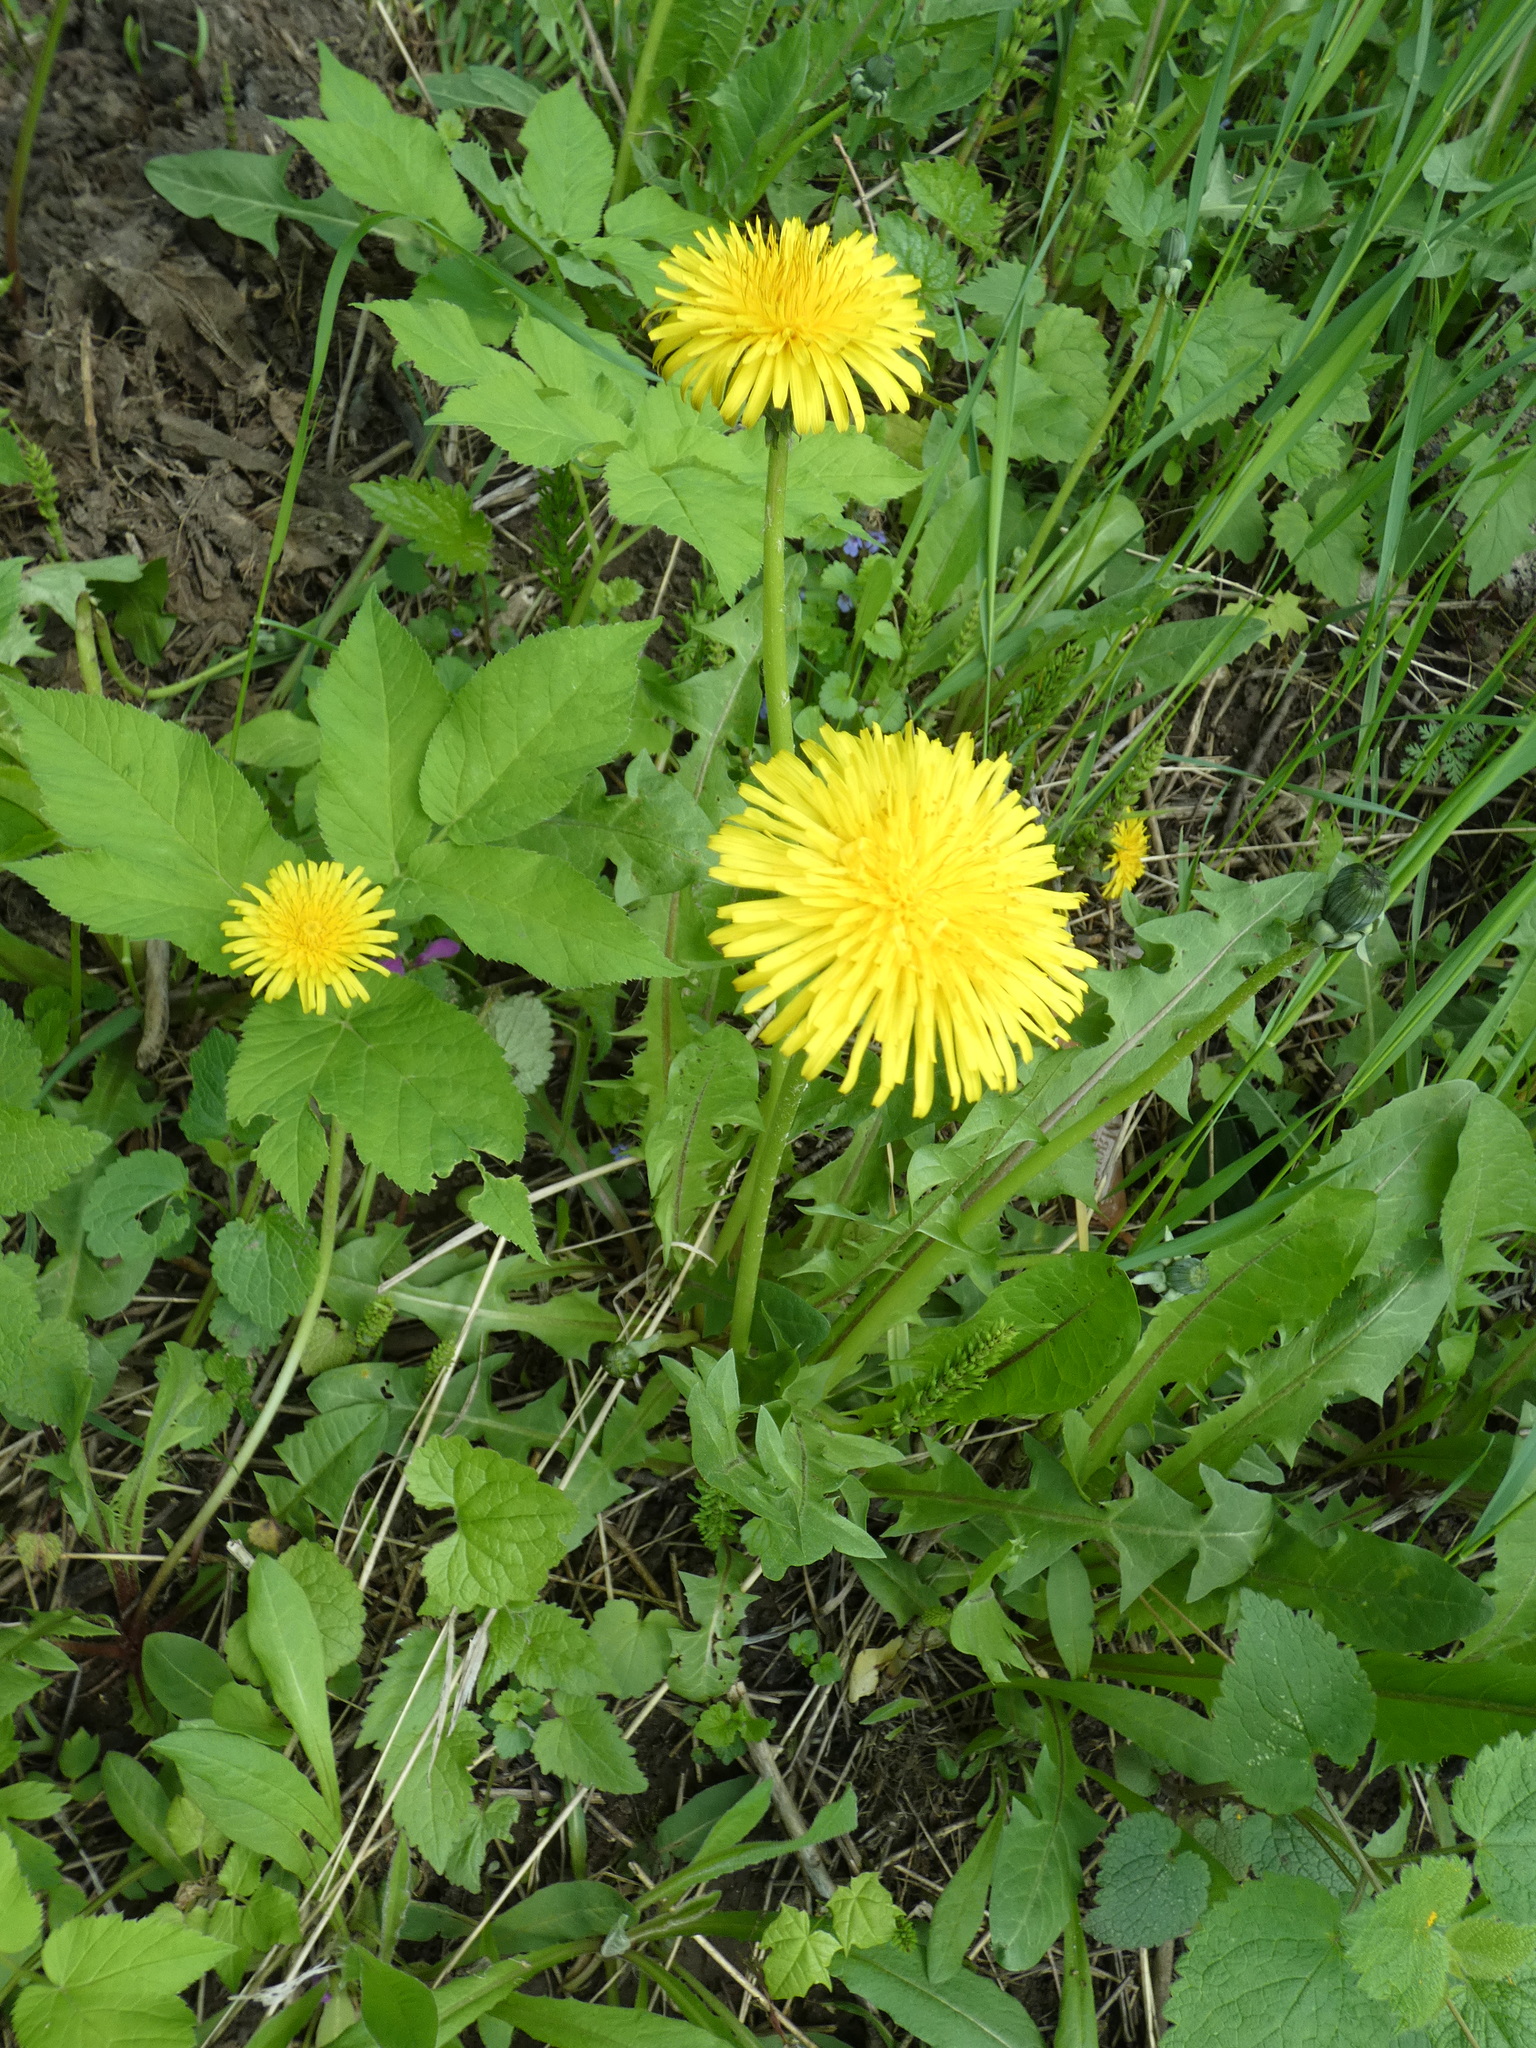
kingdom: Plantae
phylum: Tracheophyta
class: Magnoliopsida
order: Asterales
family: Asteraceae
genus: Taraxacum
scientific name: Taraxacum officinale
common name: Common dandelion
